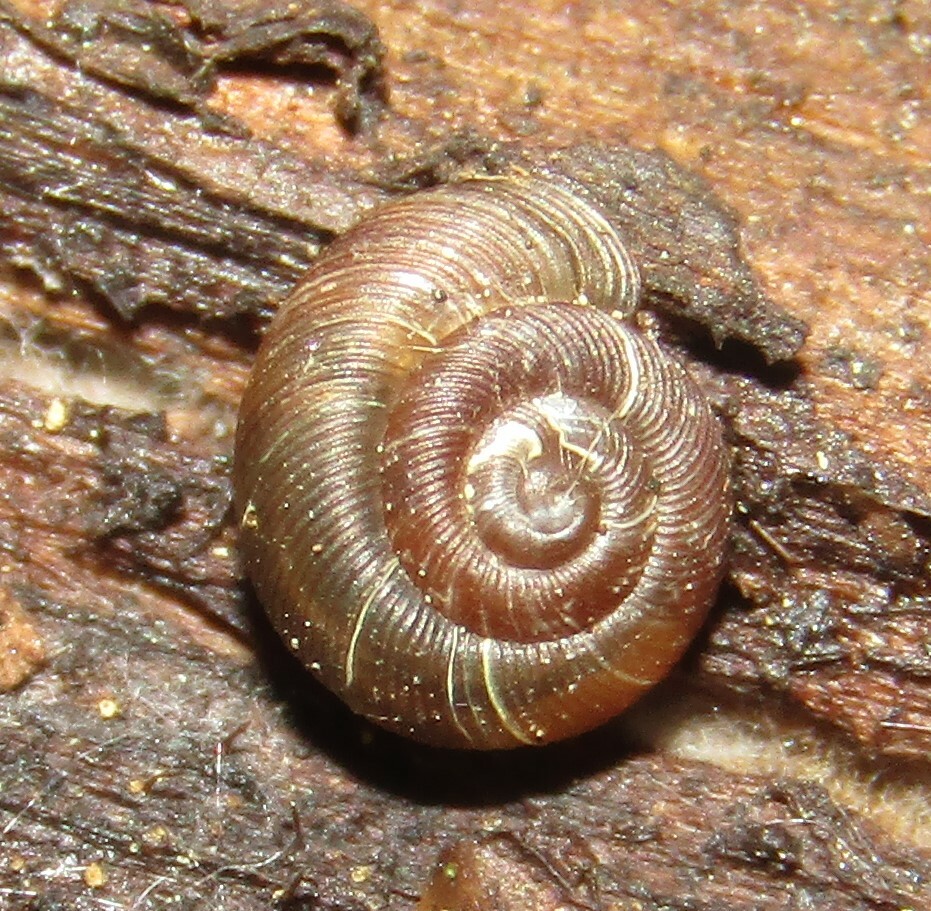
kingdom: Animalia
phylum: Mollusca
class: Gastropoda
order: Stylommatophora
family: Discidae
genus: Discus
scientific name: Discus ruderatus
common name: Brown disc snail
